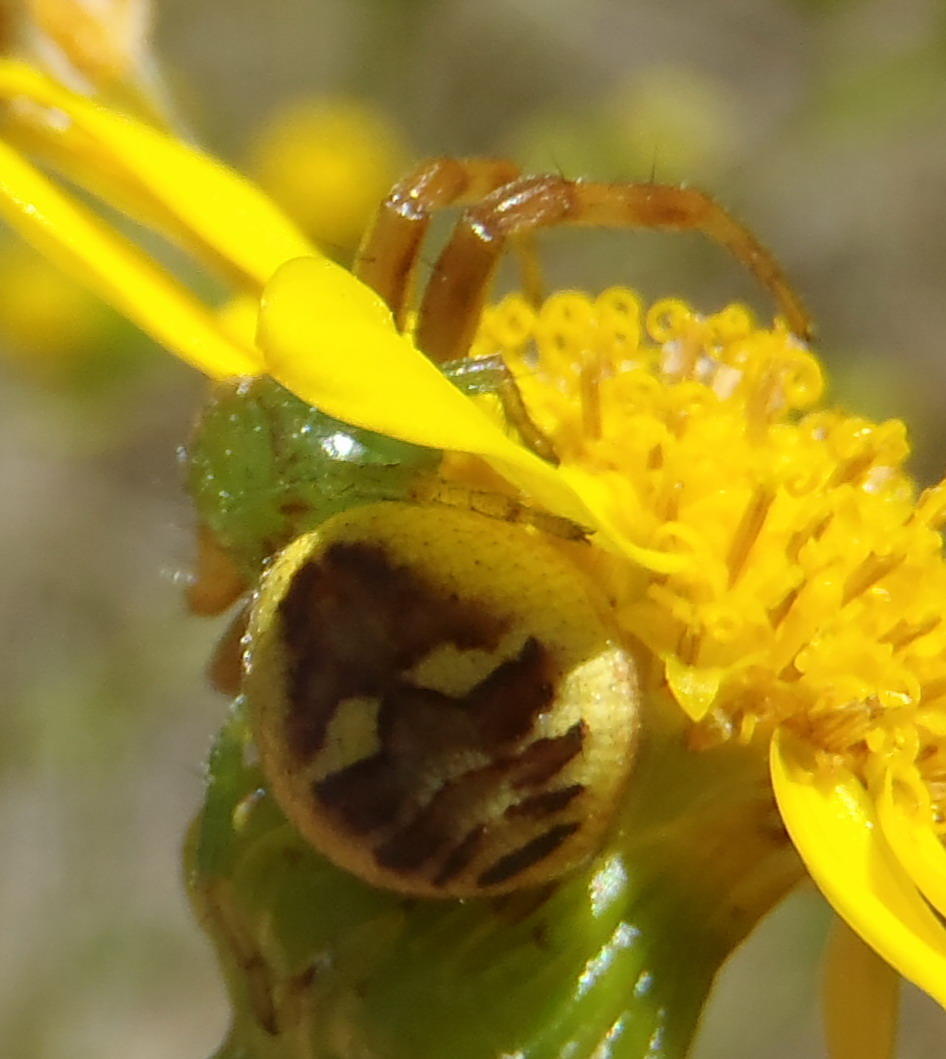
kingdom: Animalia
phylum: Arthropoda
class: Arachnida
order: Araneae
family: Thomisidae
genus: Synema
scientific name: Synema imitatrix
